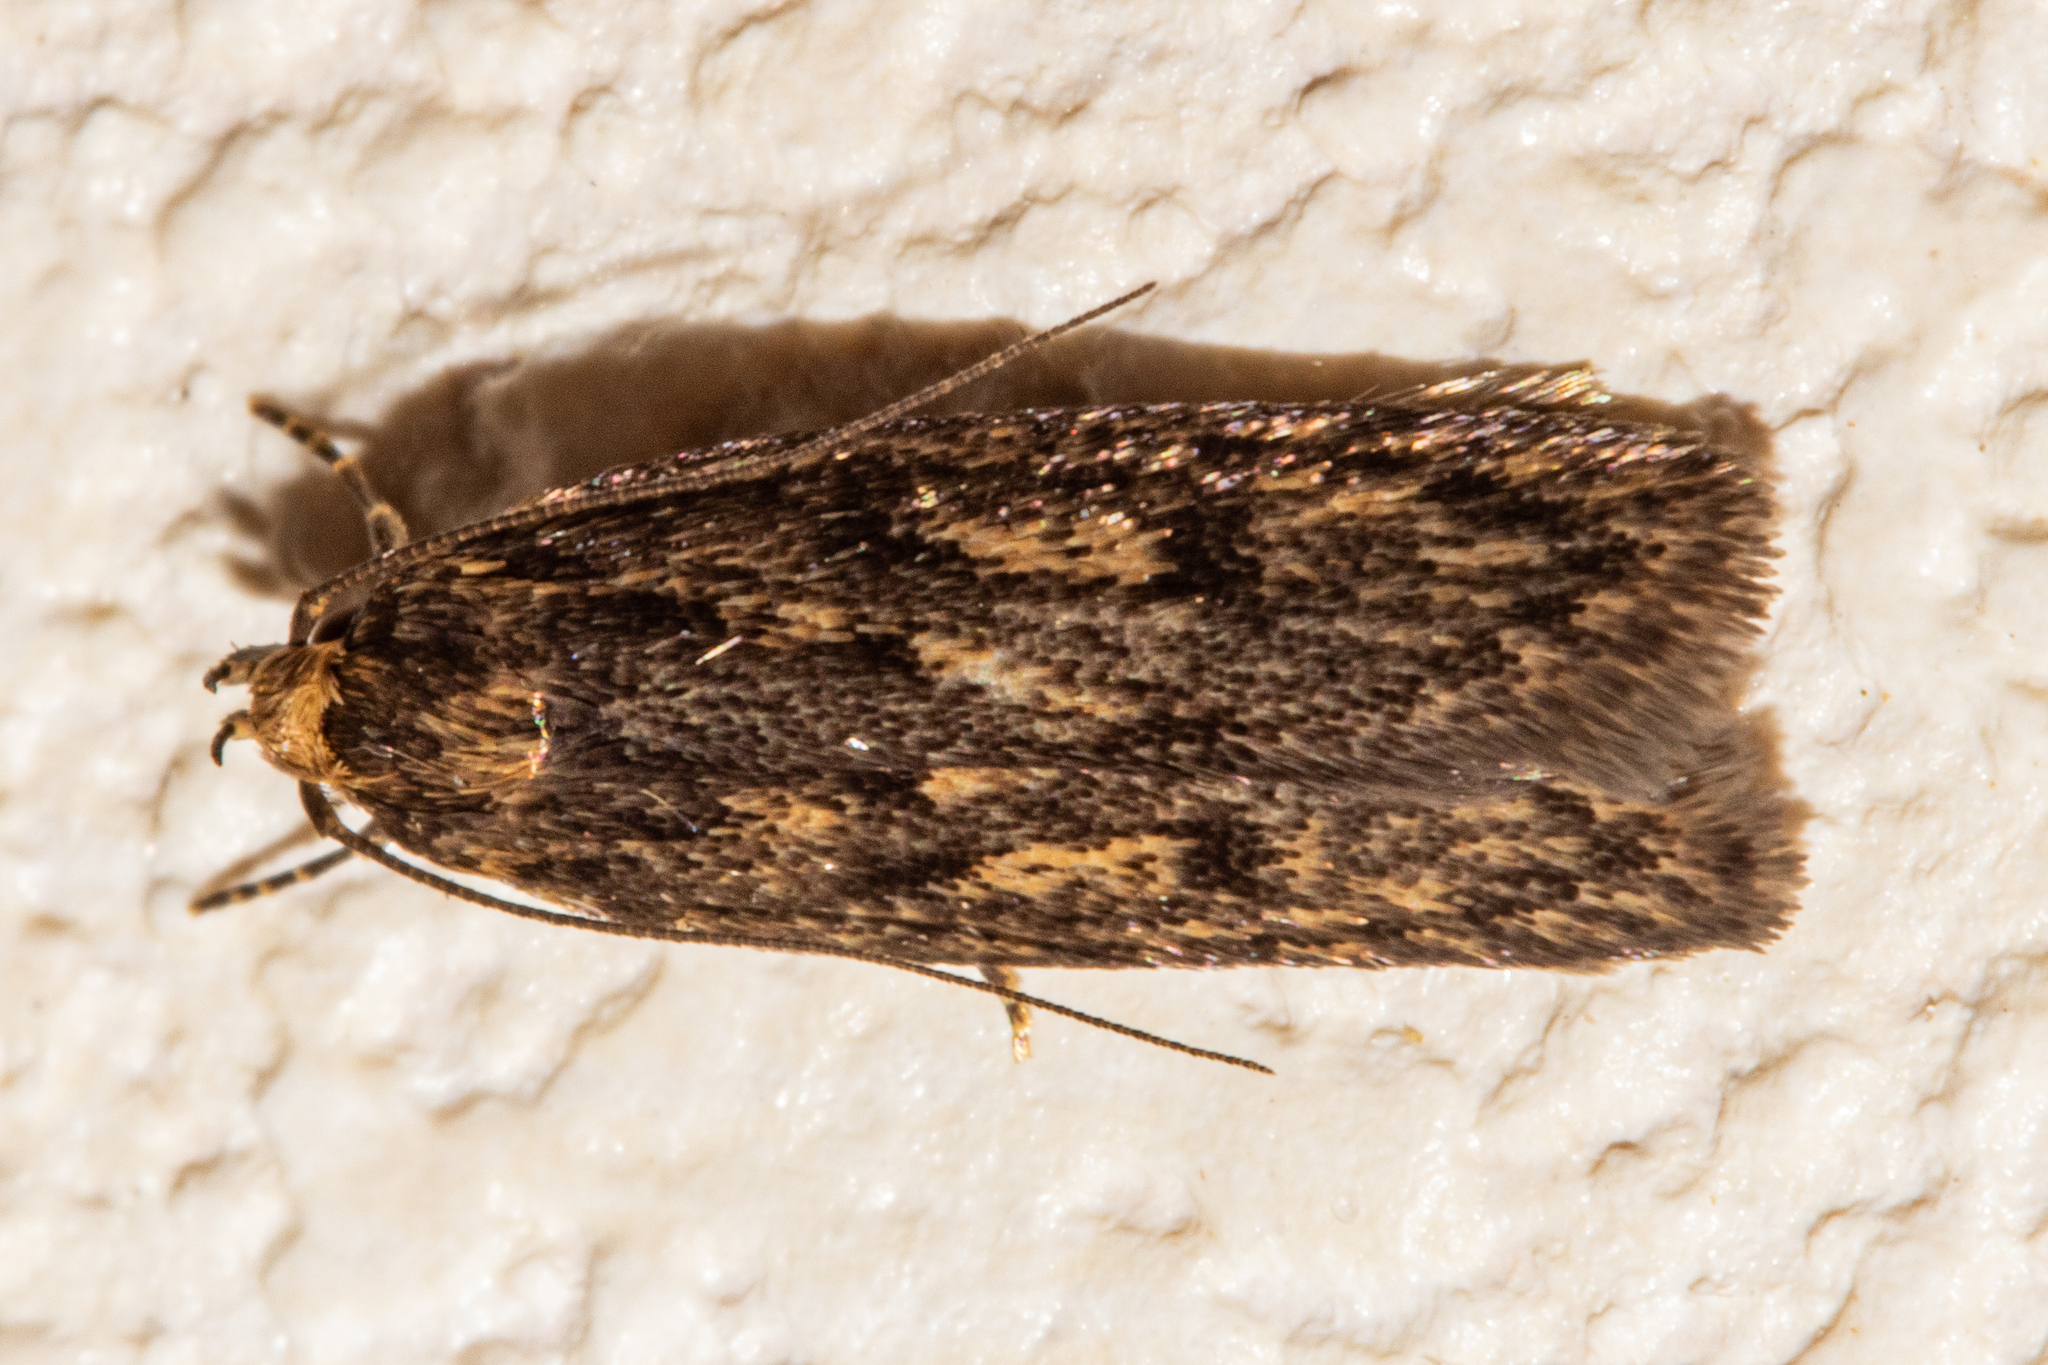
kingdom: Animalia
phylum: Arthropoda
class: Insecta
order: Lepidoptera
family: Oecophoridae
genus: Hofmannophila
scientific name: Hofmannophila pseudospretella
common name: Brown house moth
